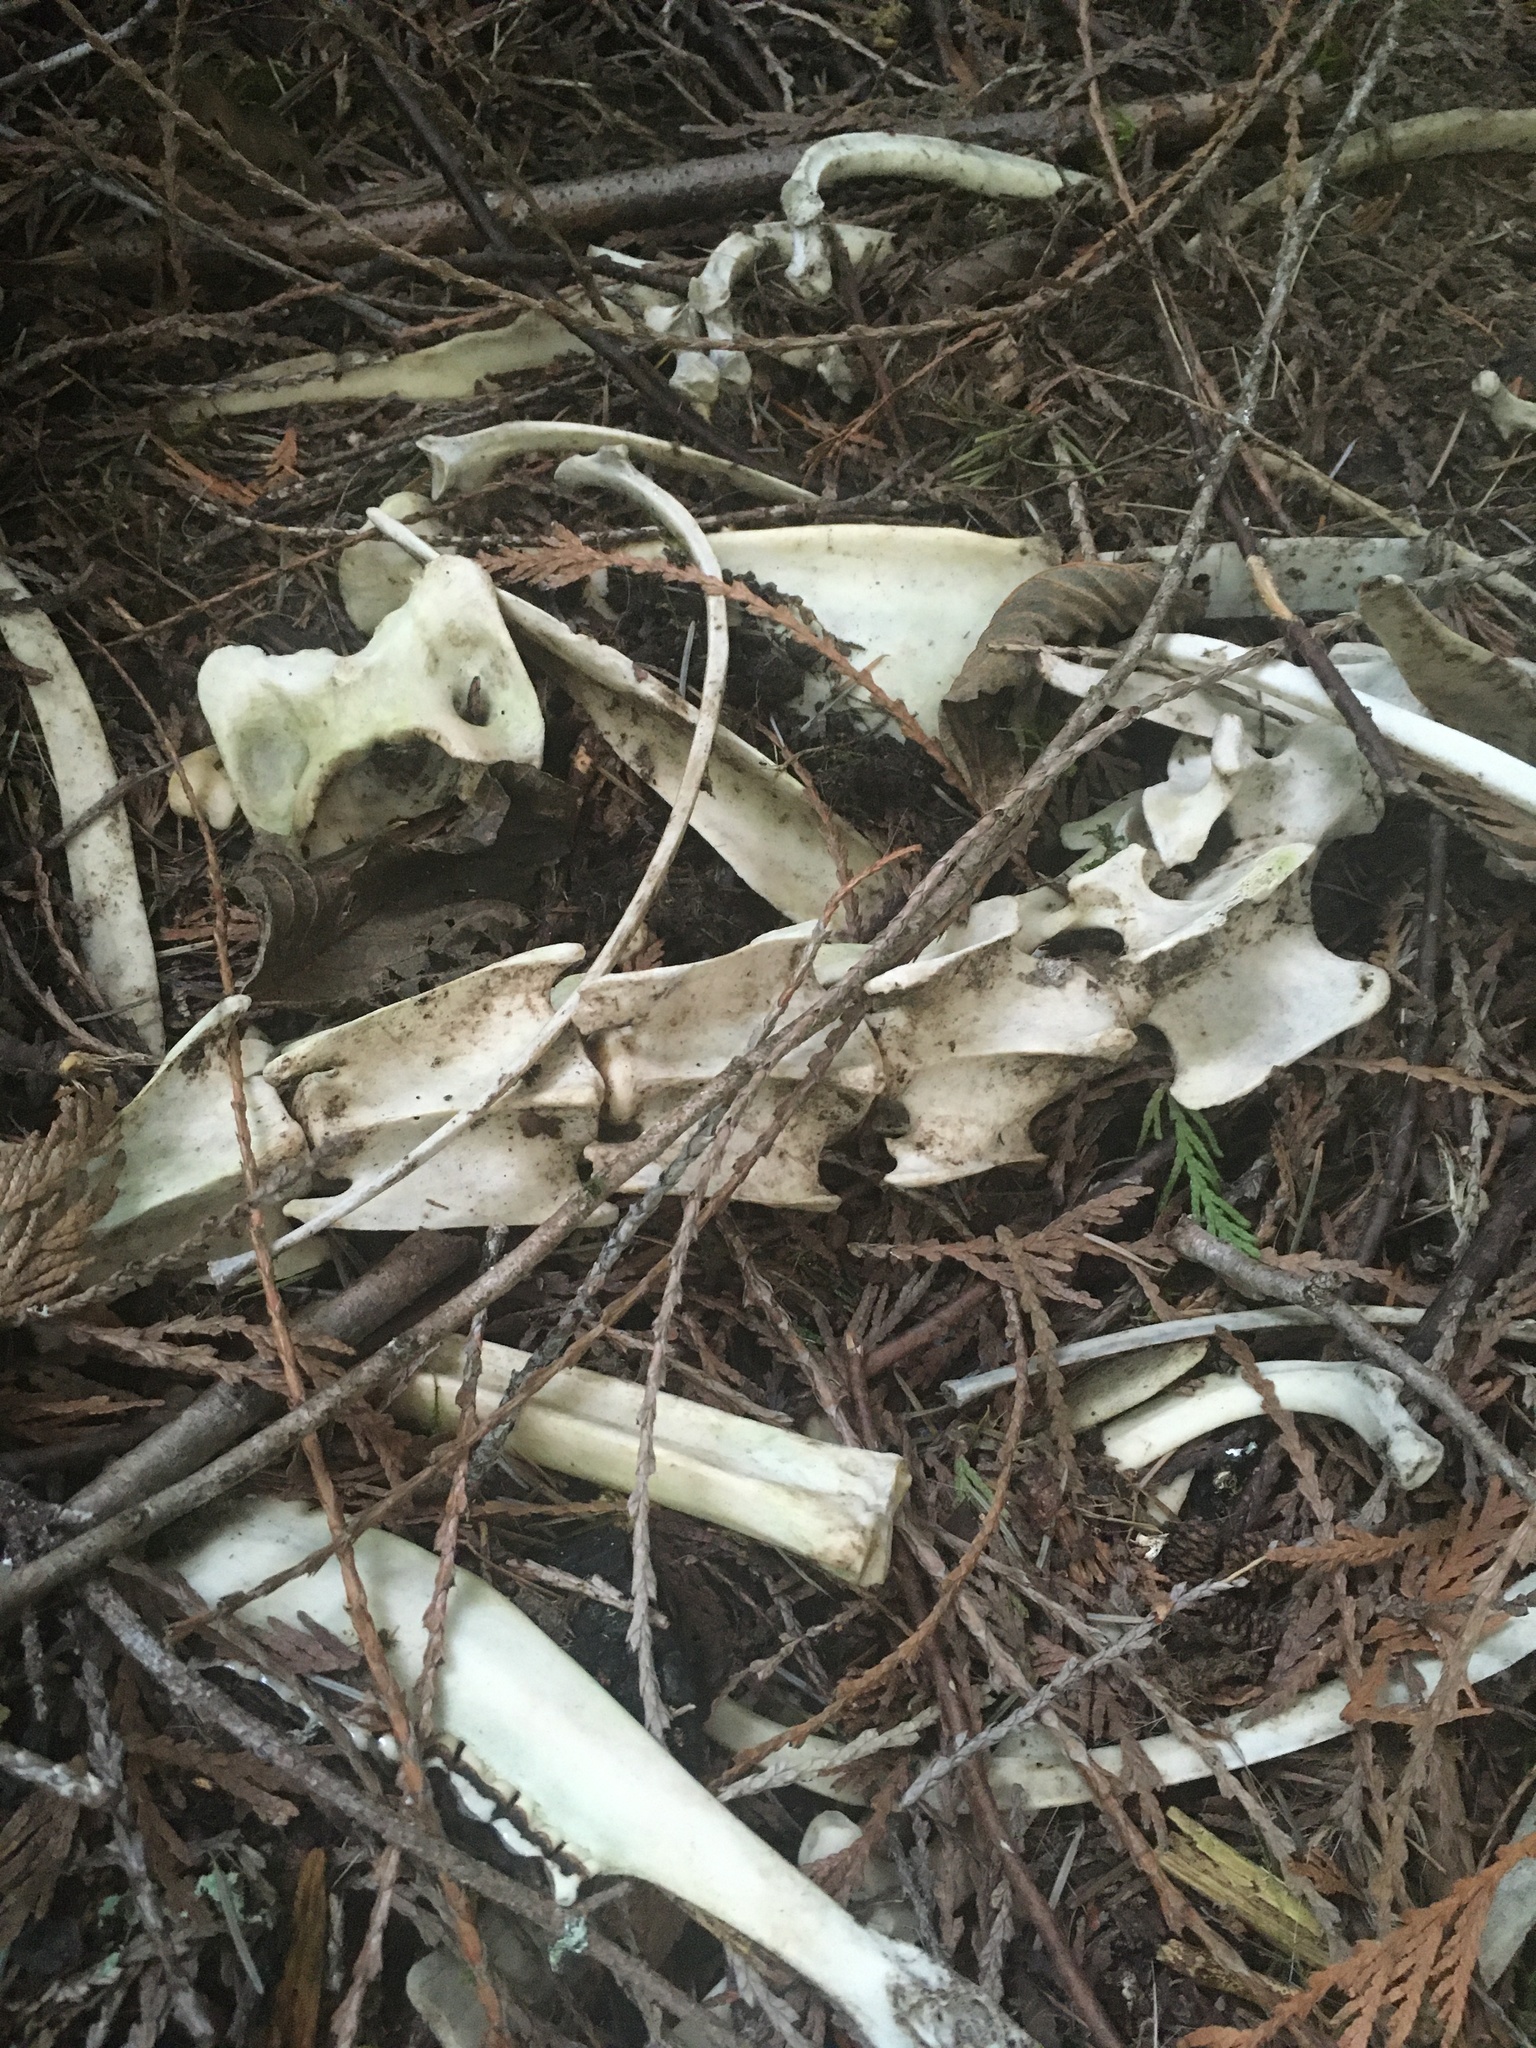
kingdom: Animalia
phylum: Chordata
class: Mammalia
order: Artiodactyla
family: Cervidae
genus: Odocoileus
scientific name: Odocoileus hemionus
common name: Mule deer
